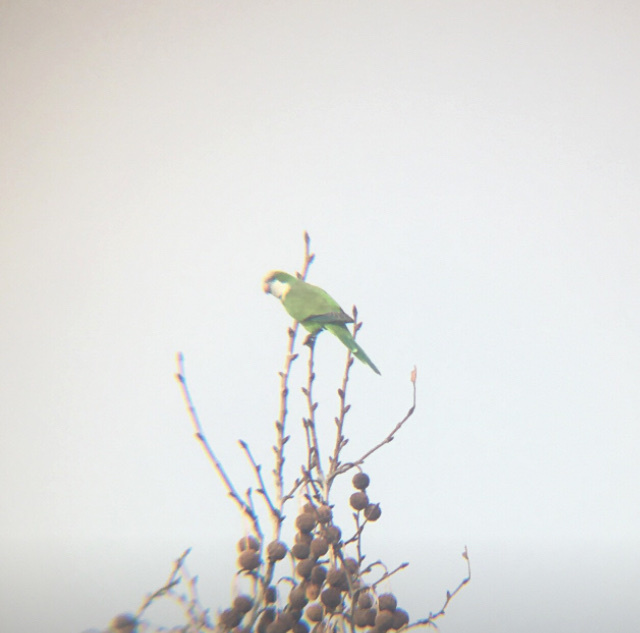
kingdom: Animalia
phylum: Chordata
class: Aves
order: Psittaciformes
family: Psittacidae
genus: Myiopsitta
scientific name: Myiopsitta monachus
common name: Monk parakeet
